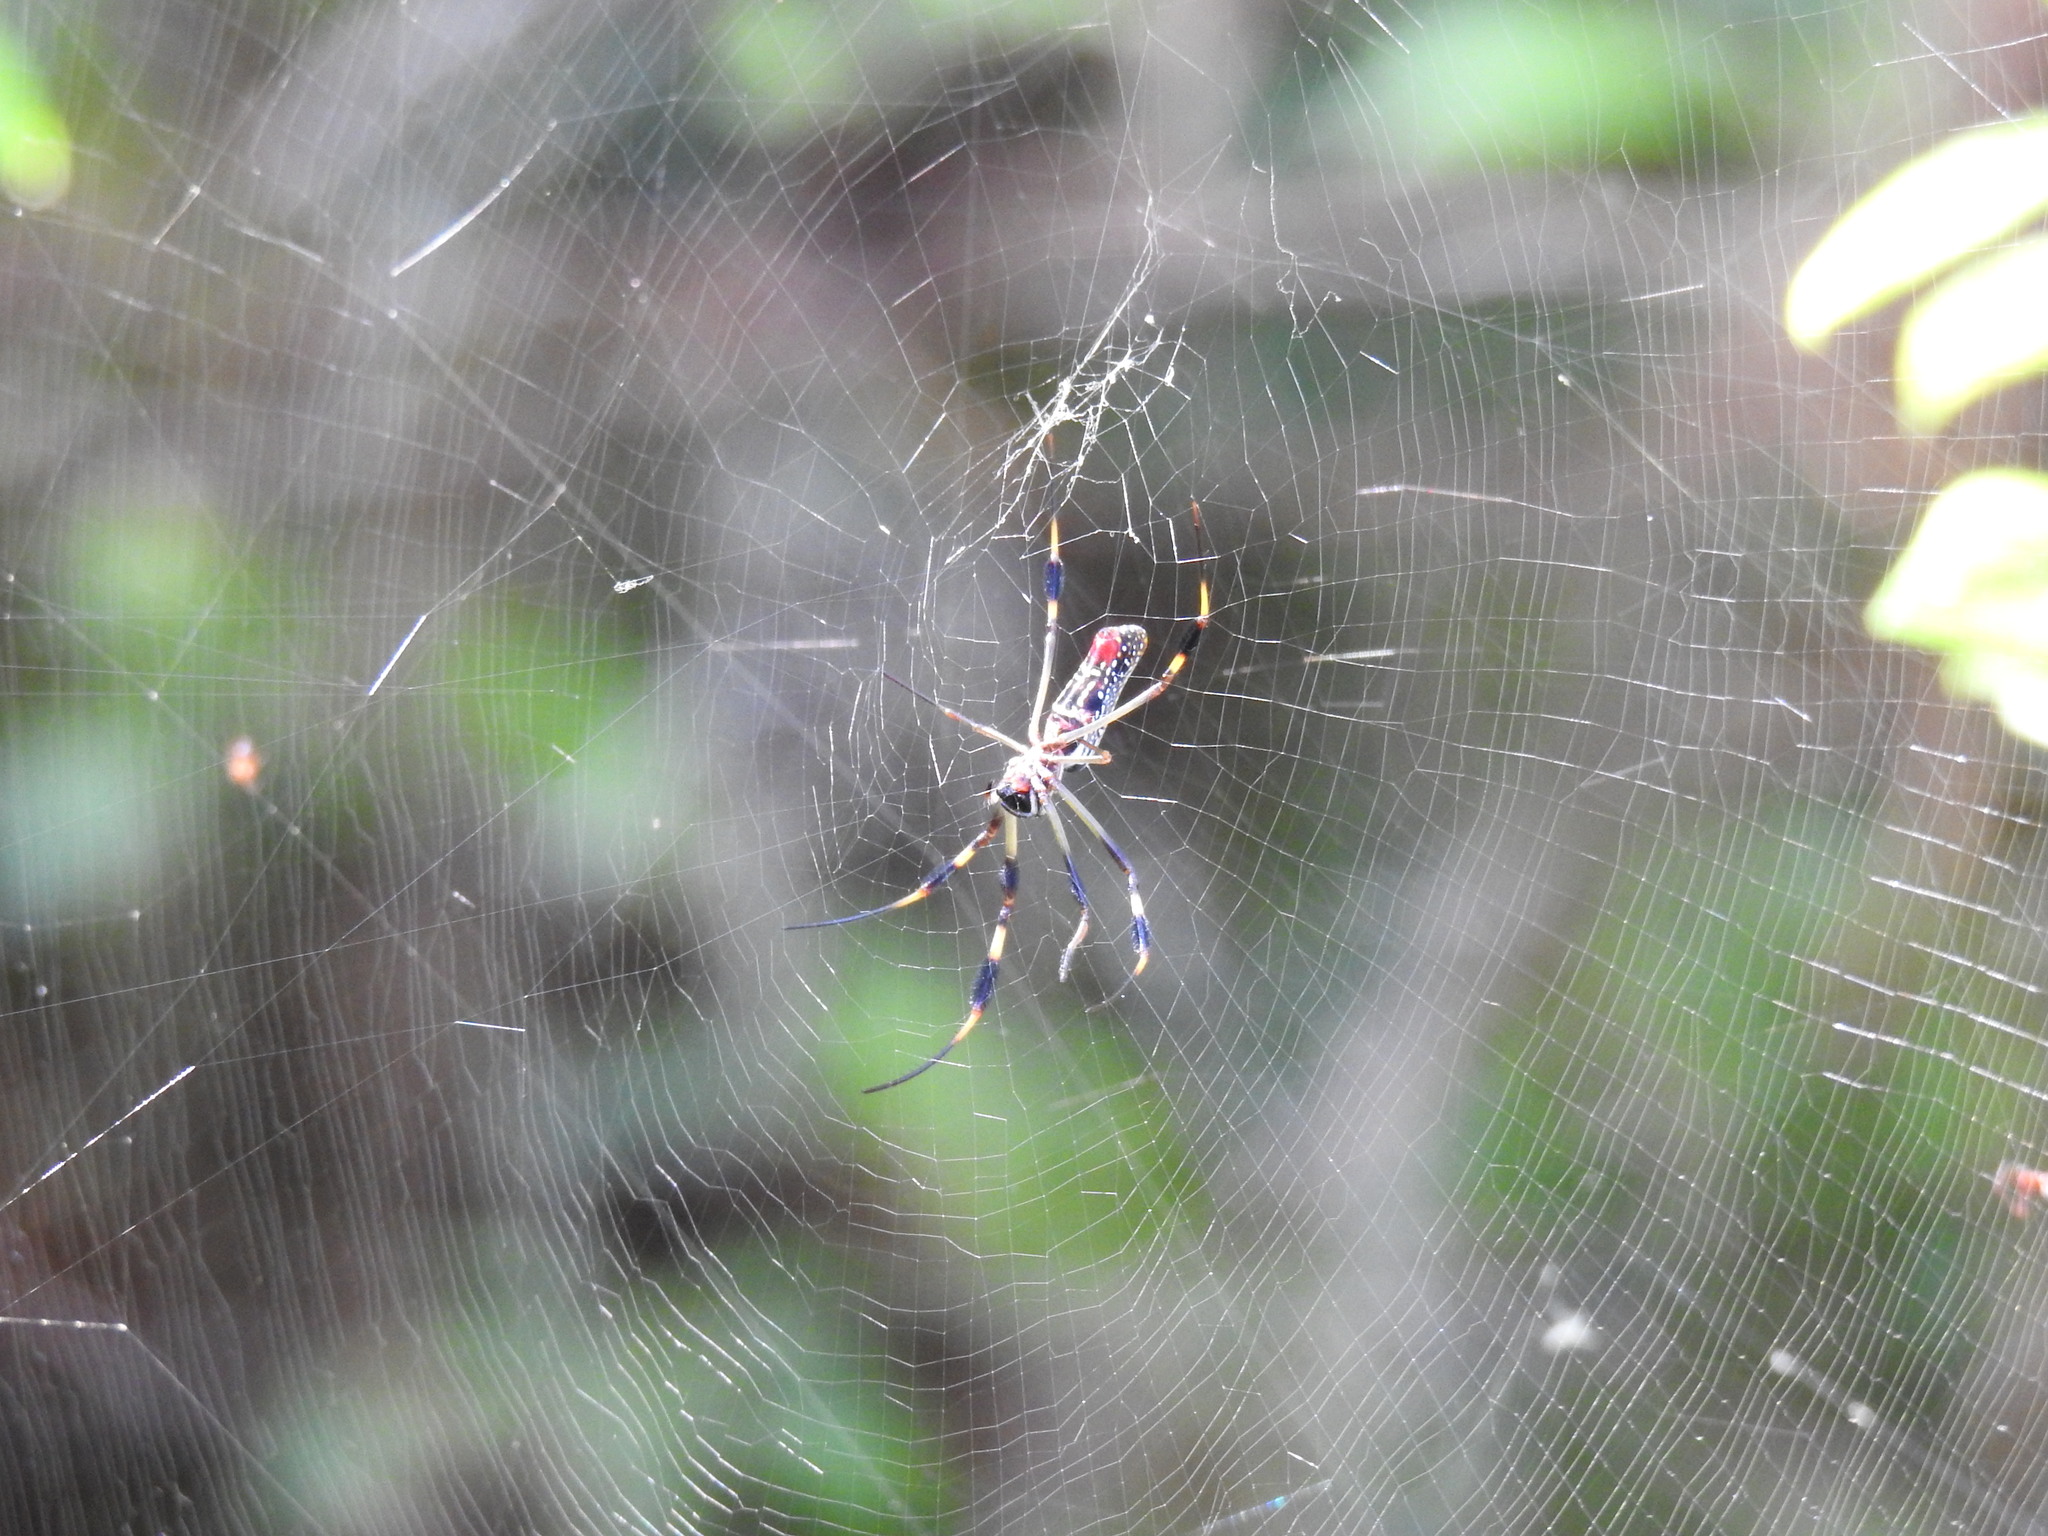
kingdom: Animalia
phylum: Arthropoda
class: Arachnida
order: Araneae
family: Araneidae
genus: Trichonephila
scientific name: Trichonephila clavipes
